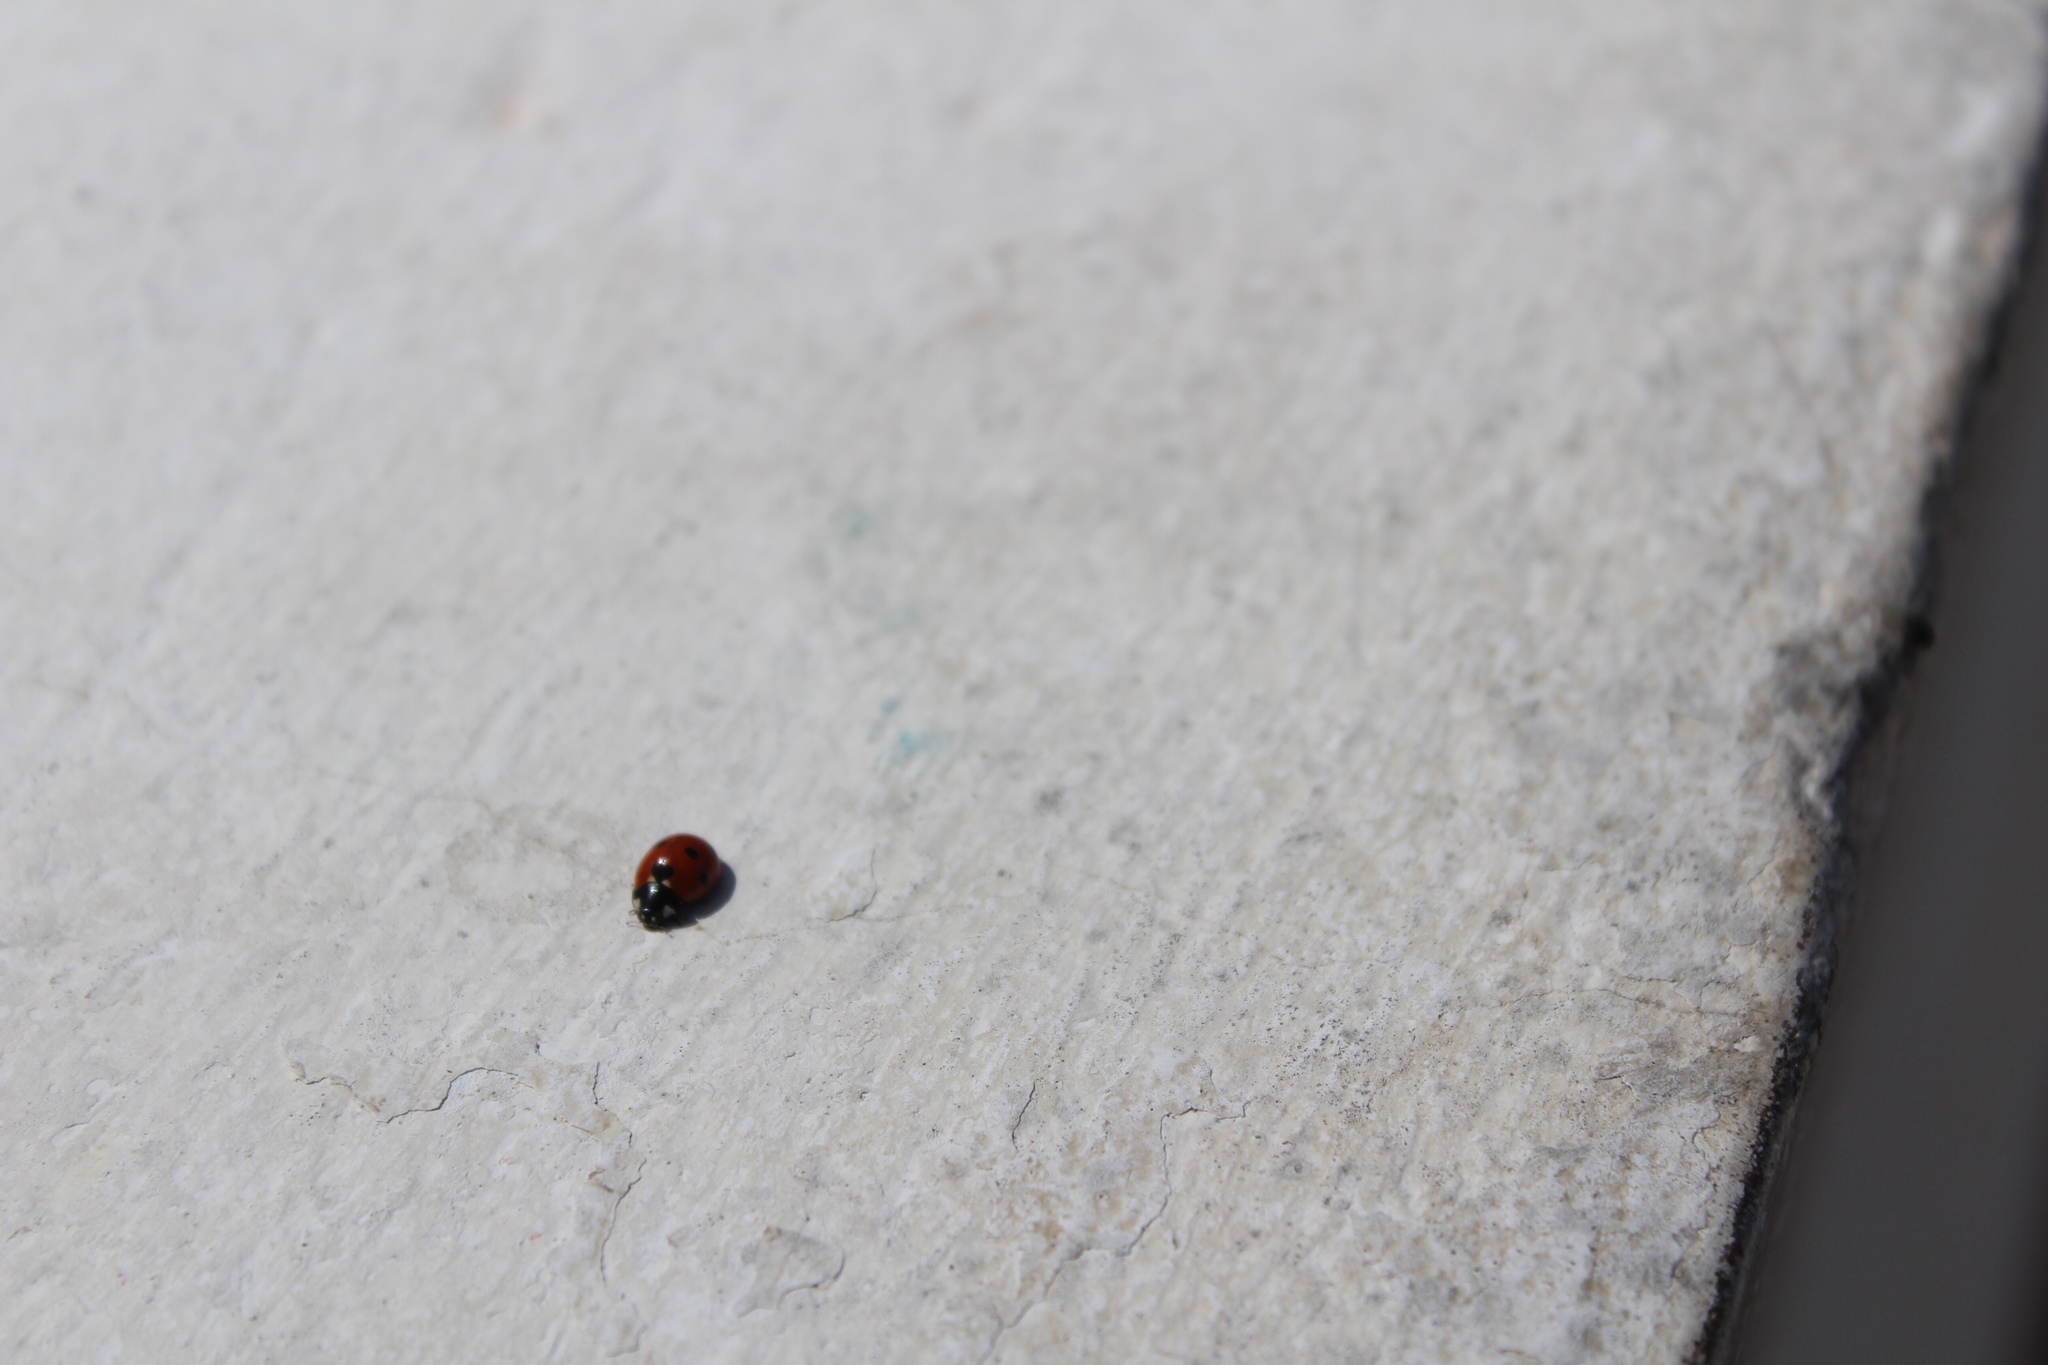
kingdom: Animalia
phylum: Arthropoda
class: Insecta
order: Coleoptera
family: Coccinellidae
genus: Coccinella
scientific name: Coccinella algerica
